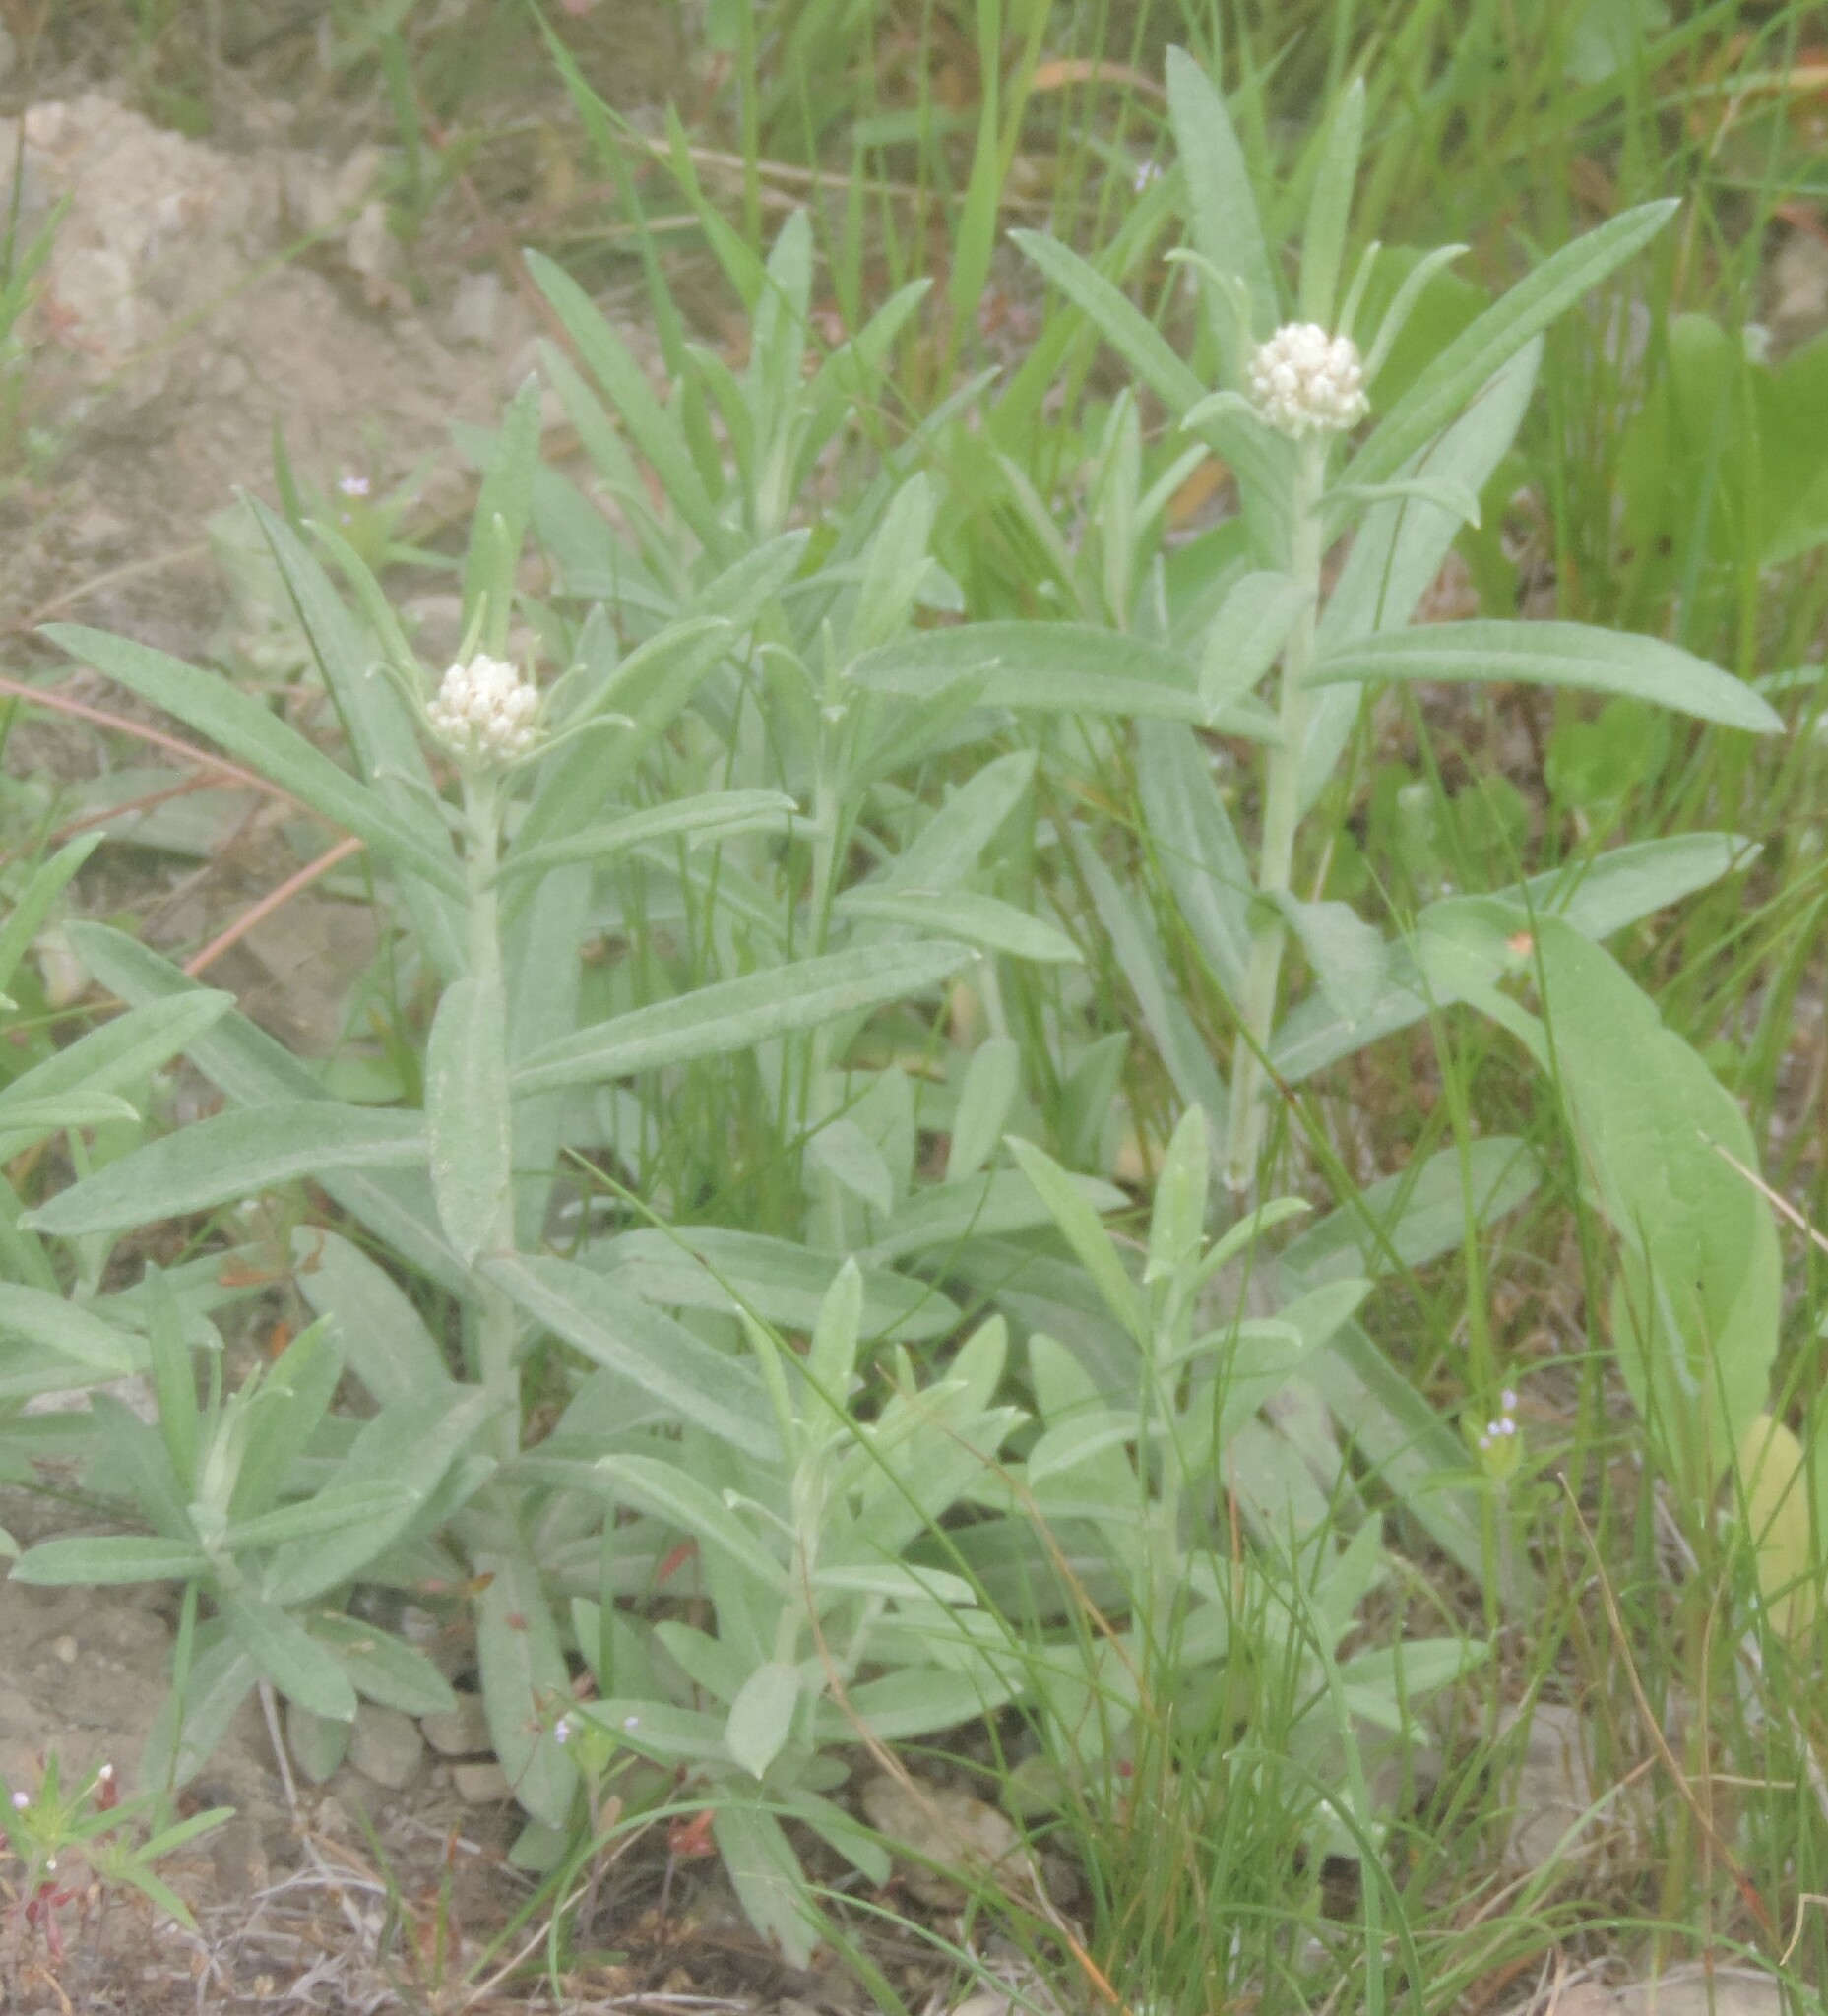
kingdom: Plantae
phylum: Tracheophyta
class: Magnoliopsida
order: Asterales
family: Asteraceae
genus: Anaphalis
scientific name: Anaphalis margaritacea
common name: Pearly everlasting
